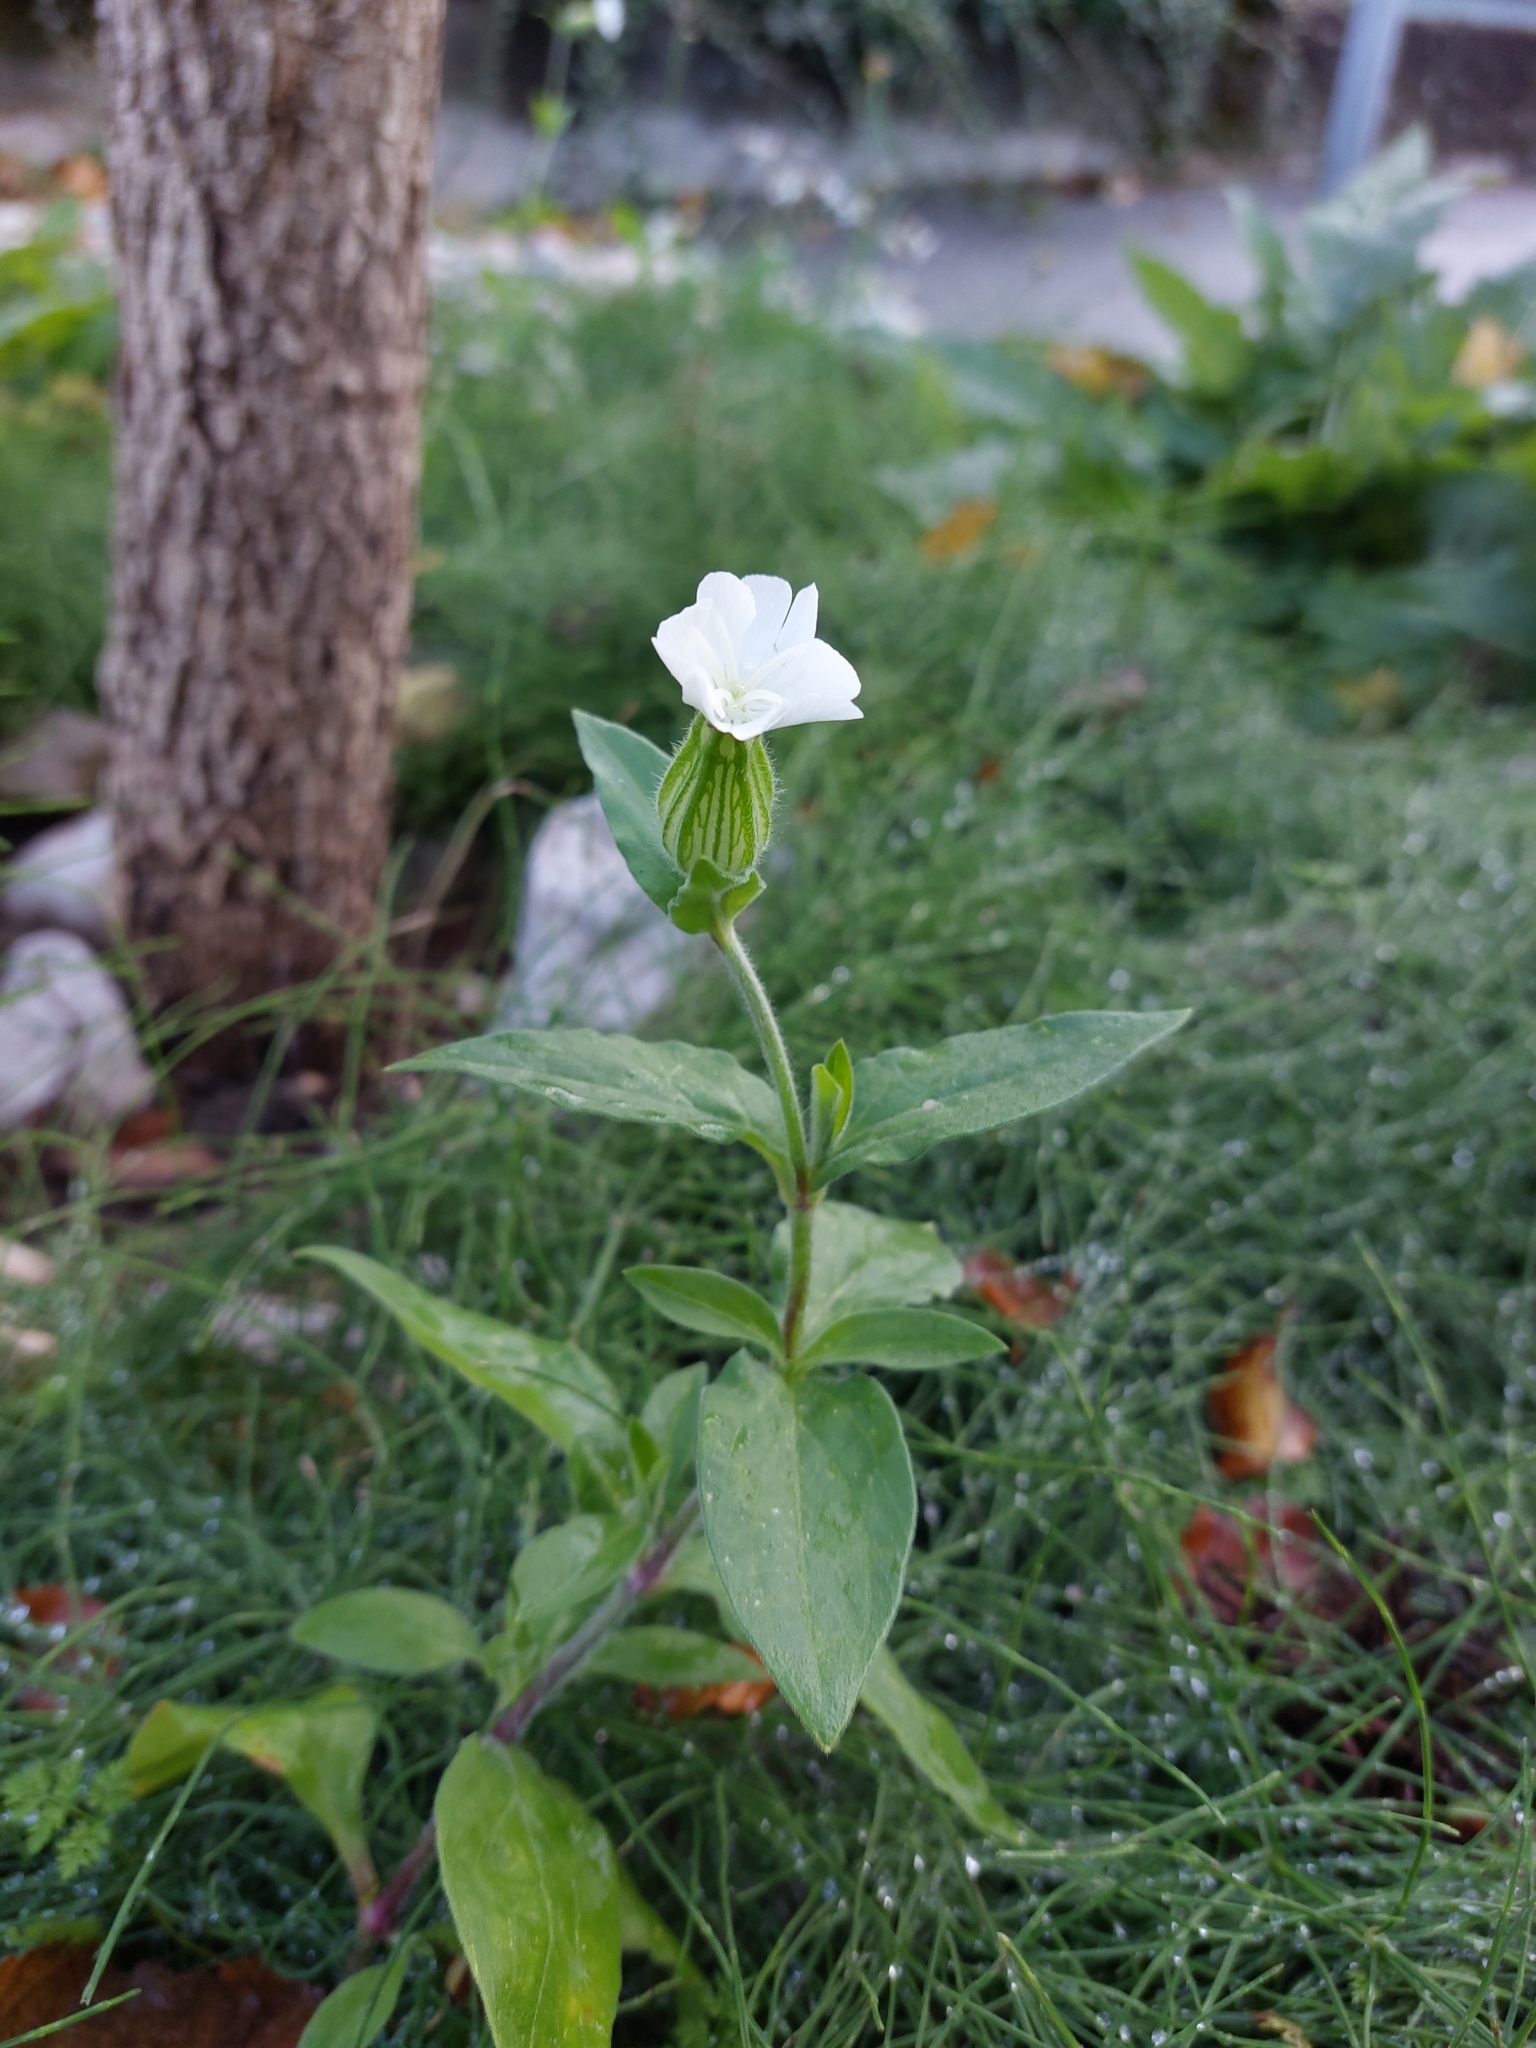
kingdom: Plantae
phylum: Tracheophyta
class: Magnoliopsida
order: Caryophyllales
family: Caryophyllaceae
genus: Silene
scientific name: Silene latifolia
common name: White campion
